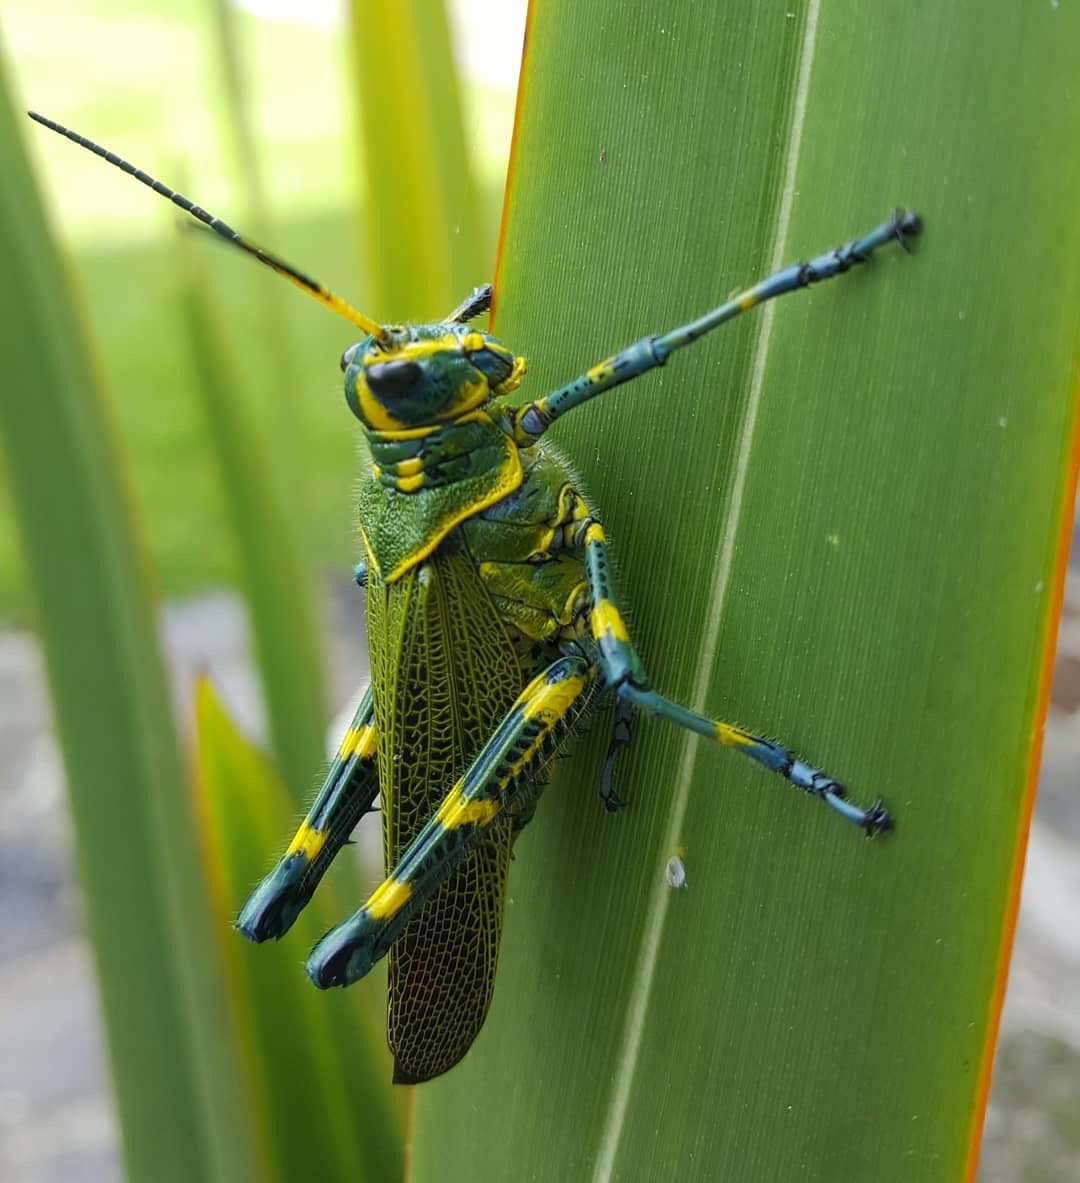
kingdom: Animalia
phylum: Arthropoda
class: Insecta
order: Orthoptera
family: Romaleidae
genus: Chromacris
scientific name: Chromacris colorata
